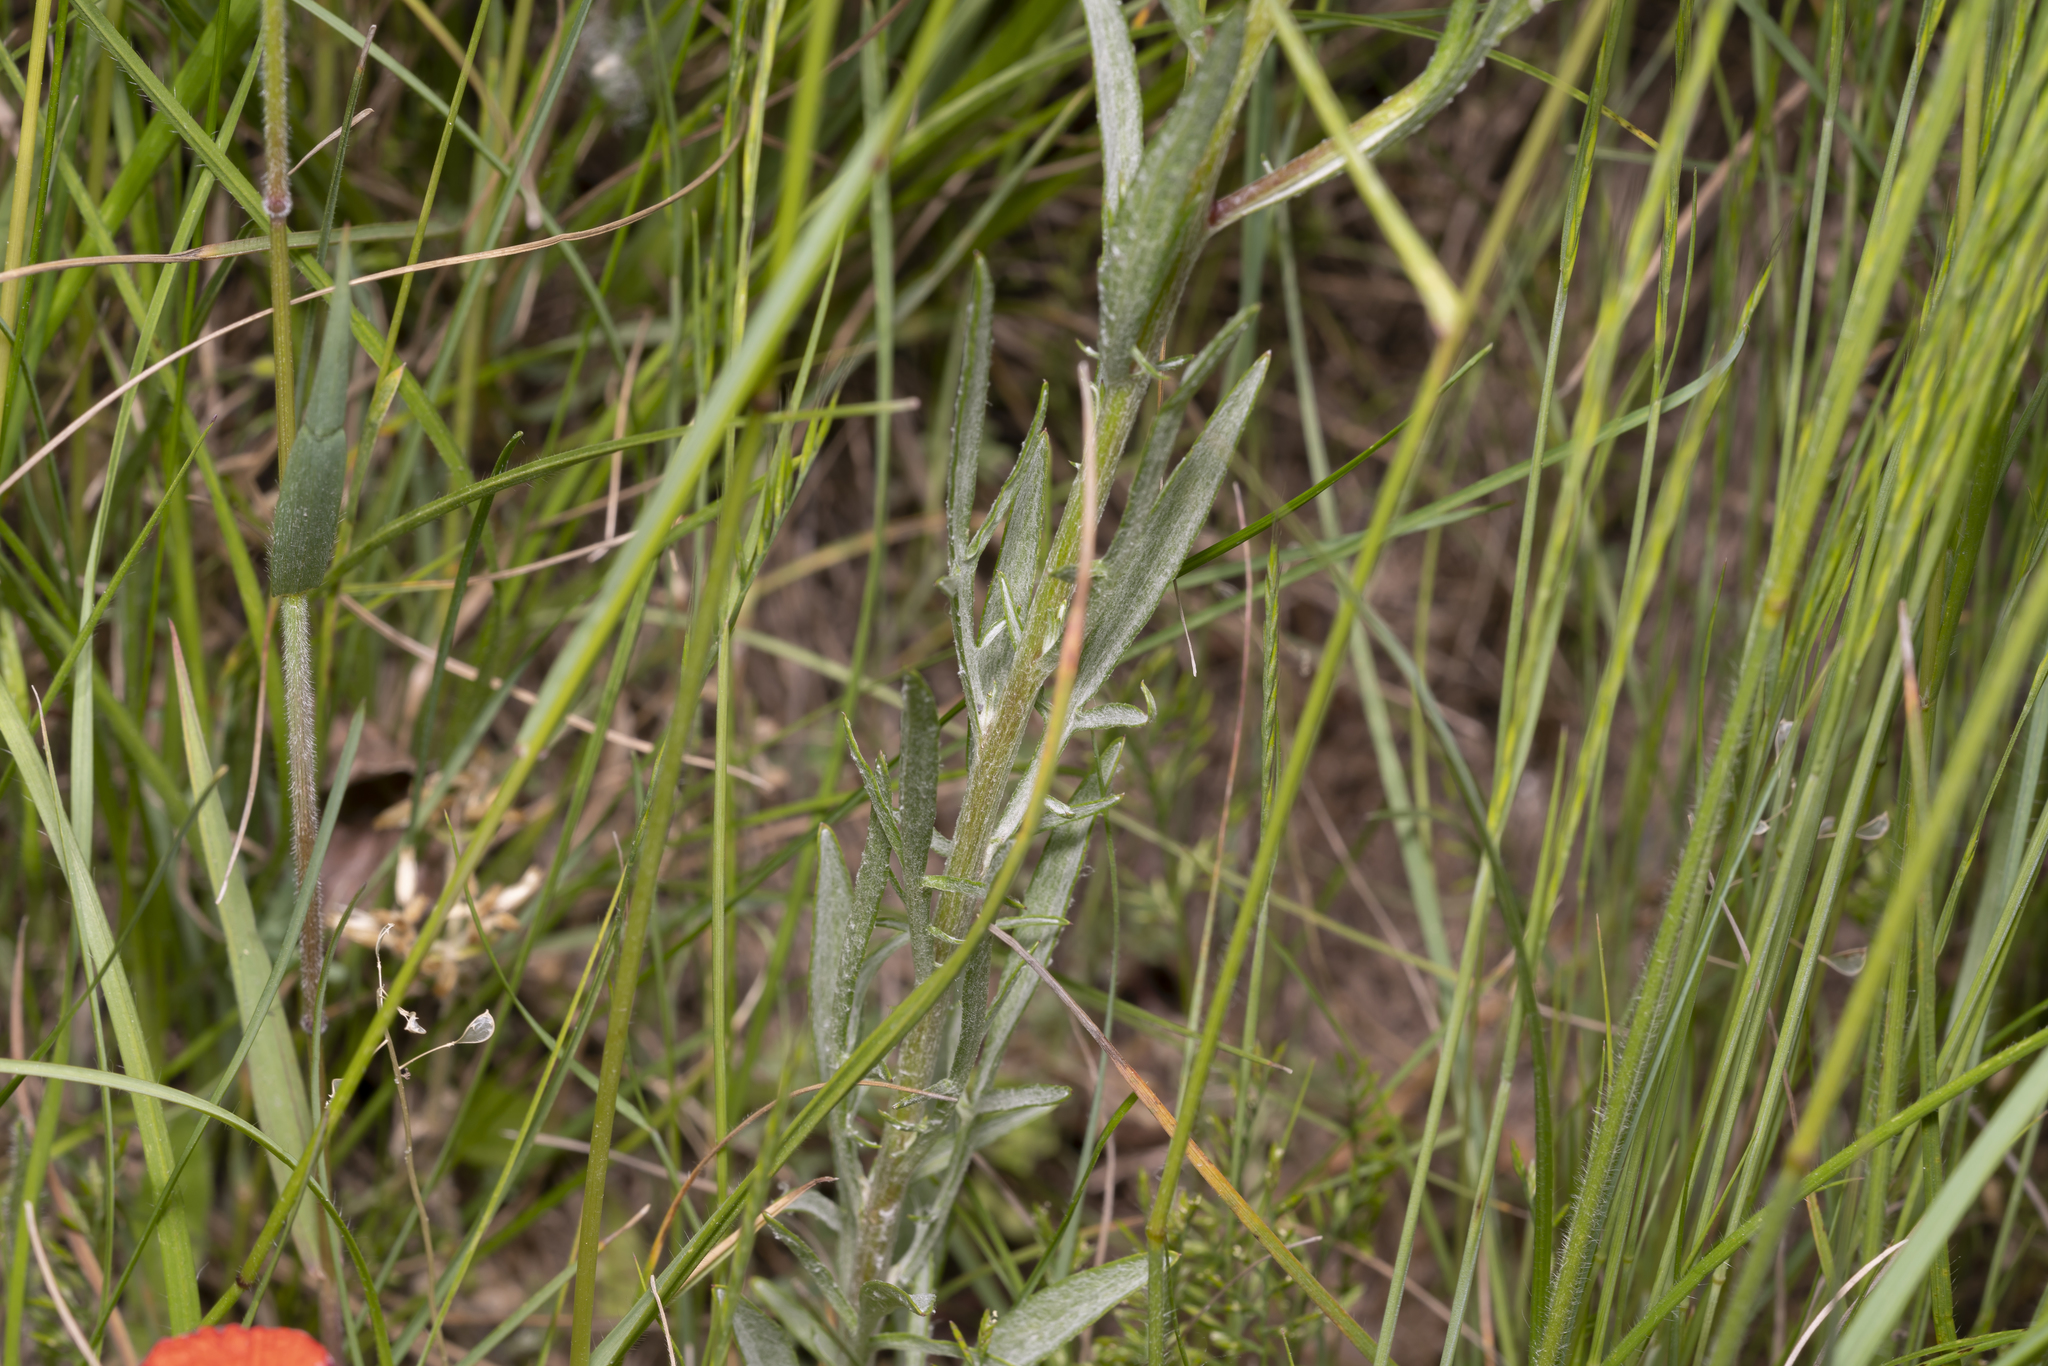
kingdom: Plantae
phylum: Tracheophyta
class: Magnoliopsida
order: Asterales
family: Asteraceae
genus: Centaurea
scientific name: Centaurea cyanus
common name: Cornflower
